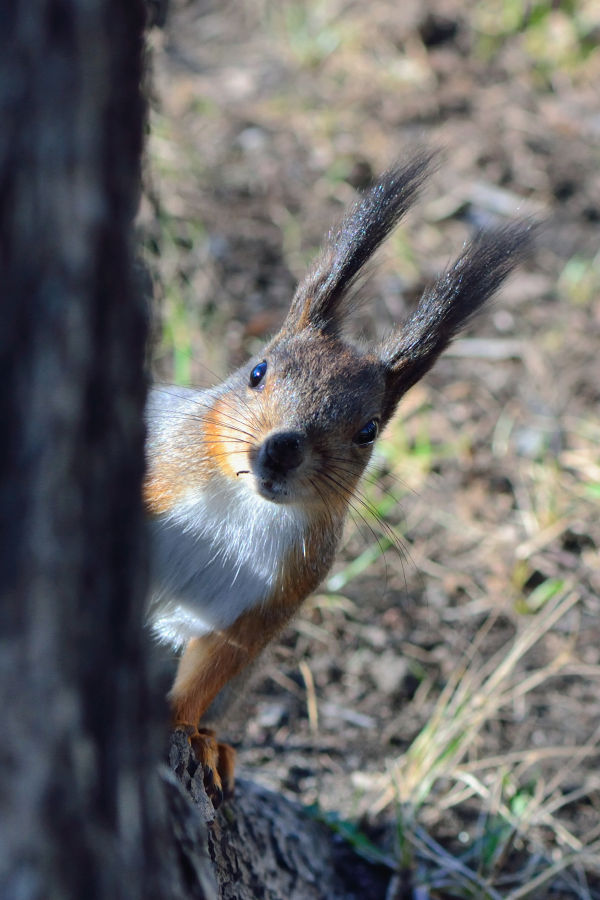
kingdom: Animalia
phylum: Chordata
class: Mammalia
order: Rodentia
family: Sciuridae
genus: Sciurus
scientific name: Sciurus vulgaris
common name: Eurasian red squirrel
